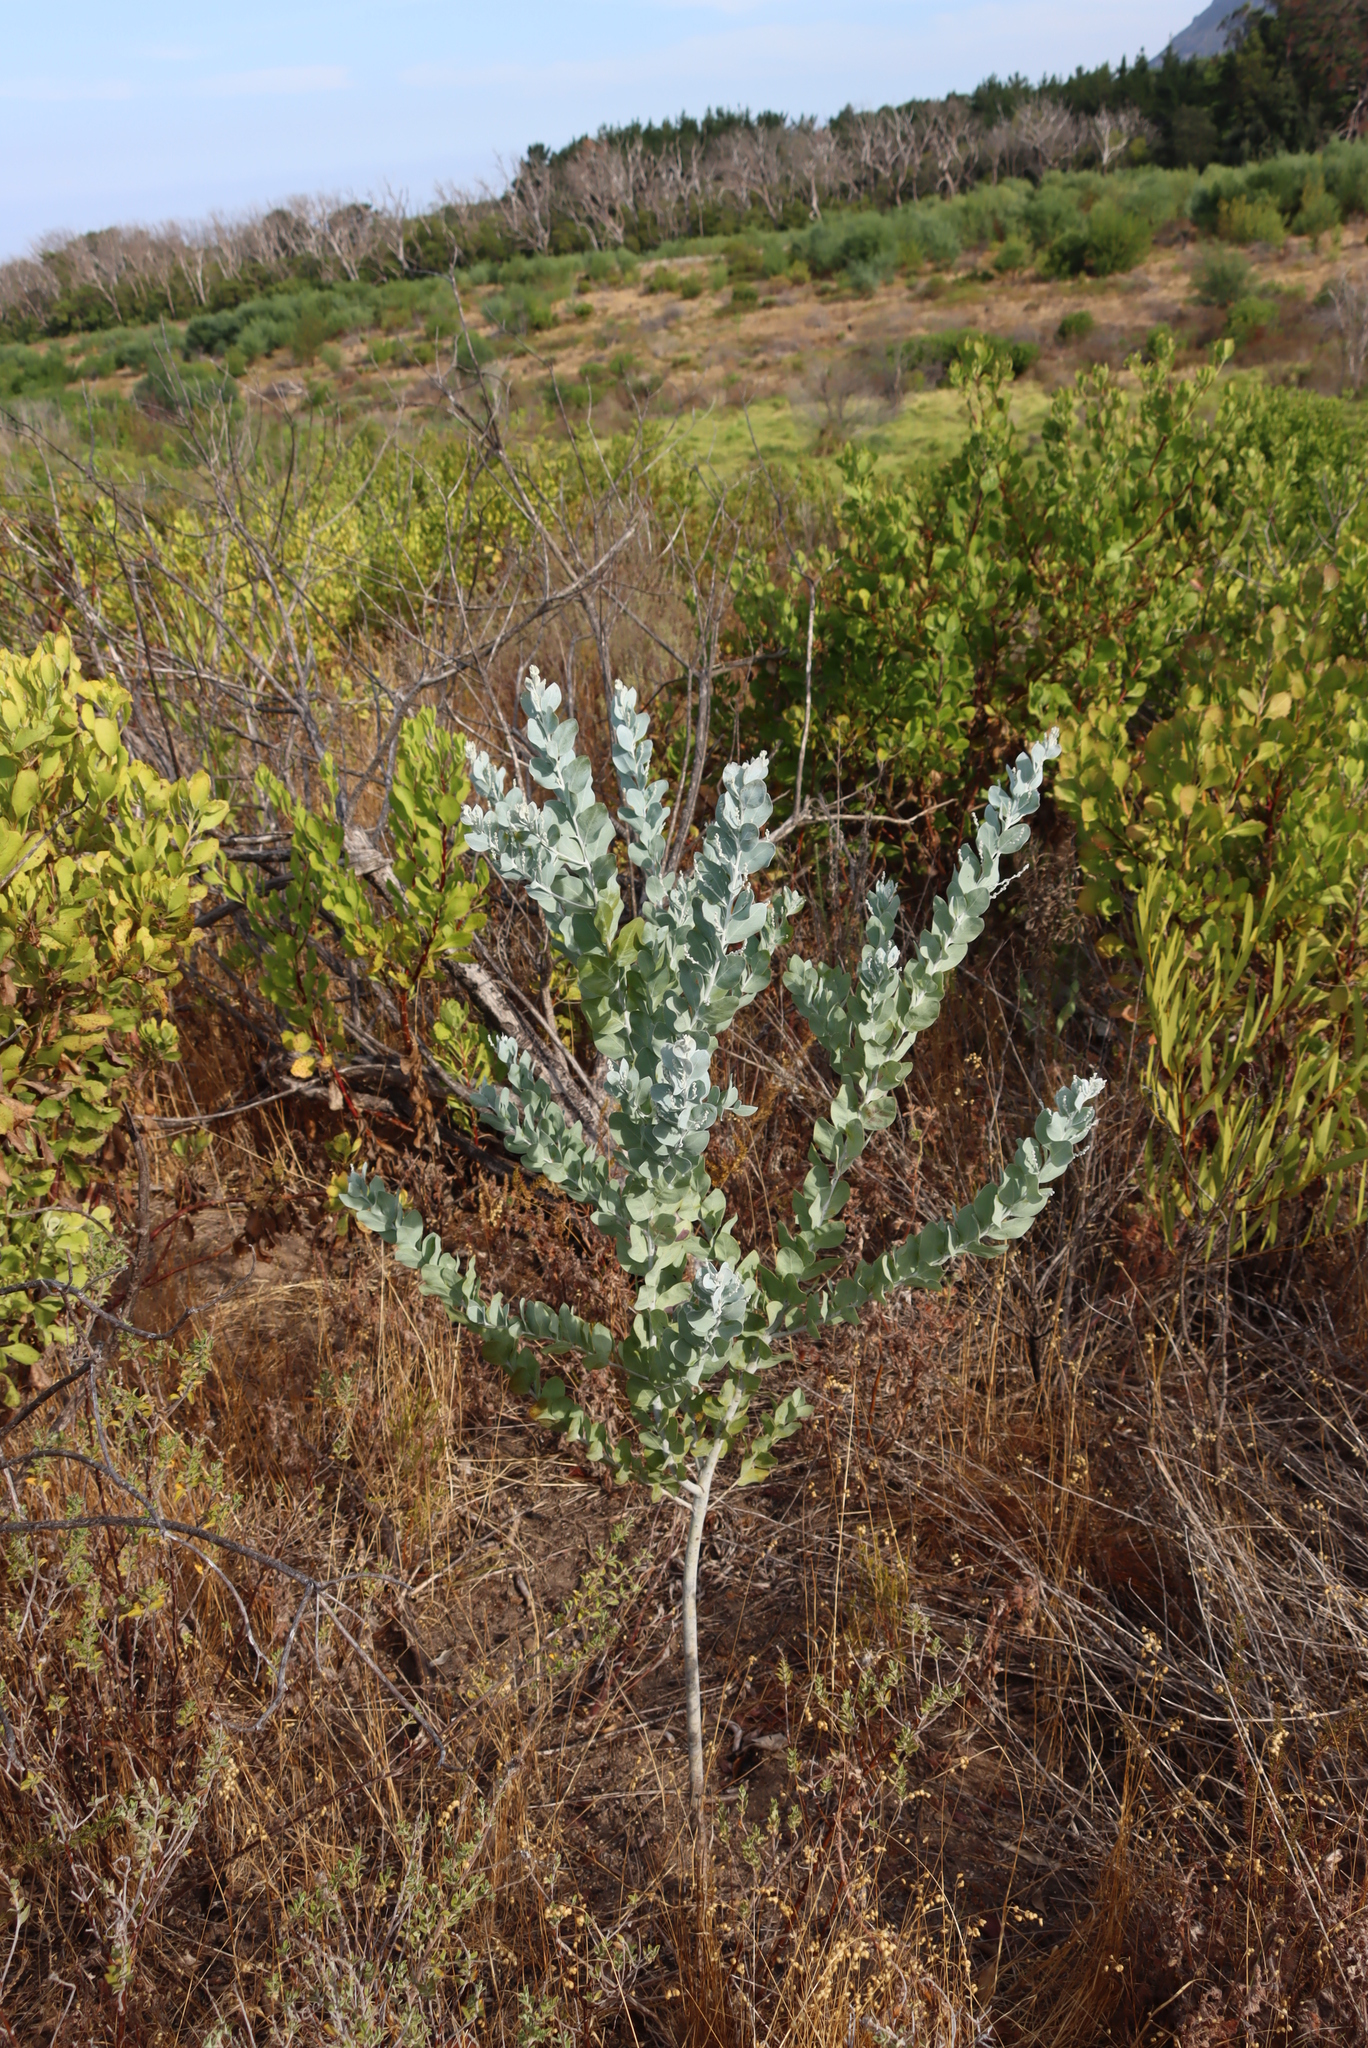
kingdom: Plantae
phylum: Tracheophyta
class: Magnoliopsida
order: Fabales
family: Fabaceae
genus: Acacia
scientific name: Acacia podalyriifolia
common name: Pearl wattle
